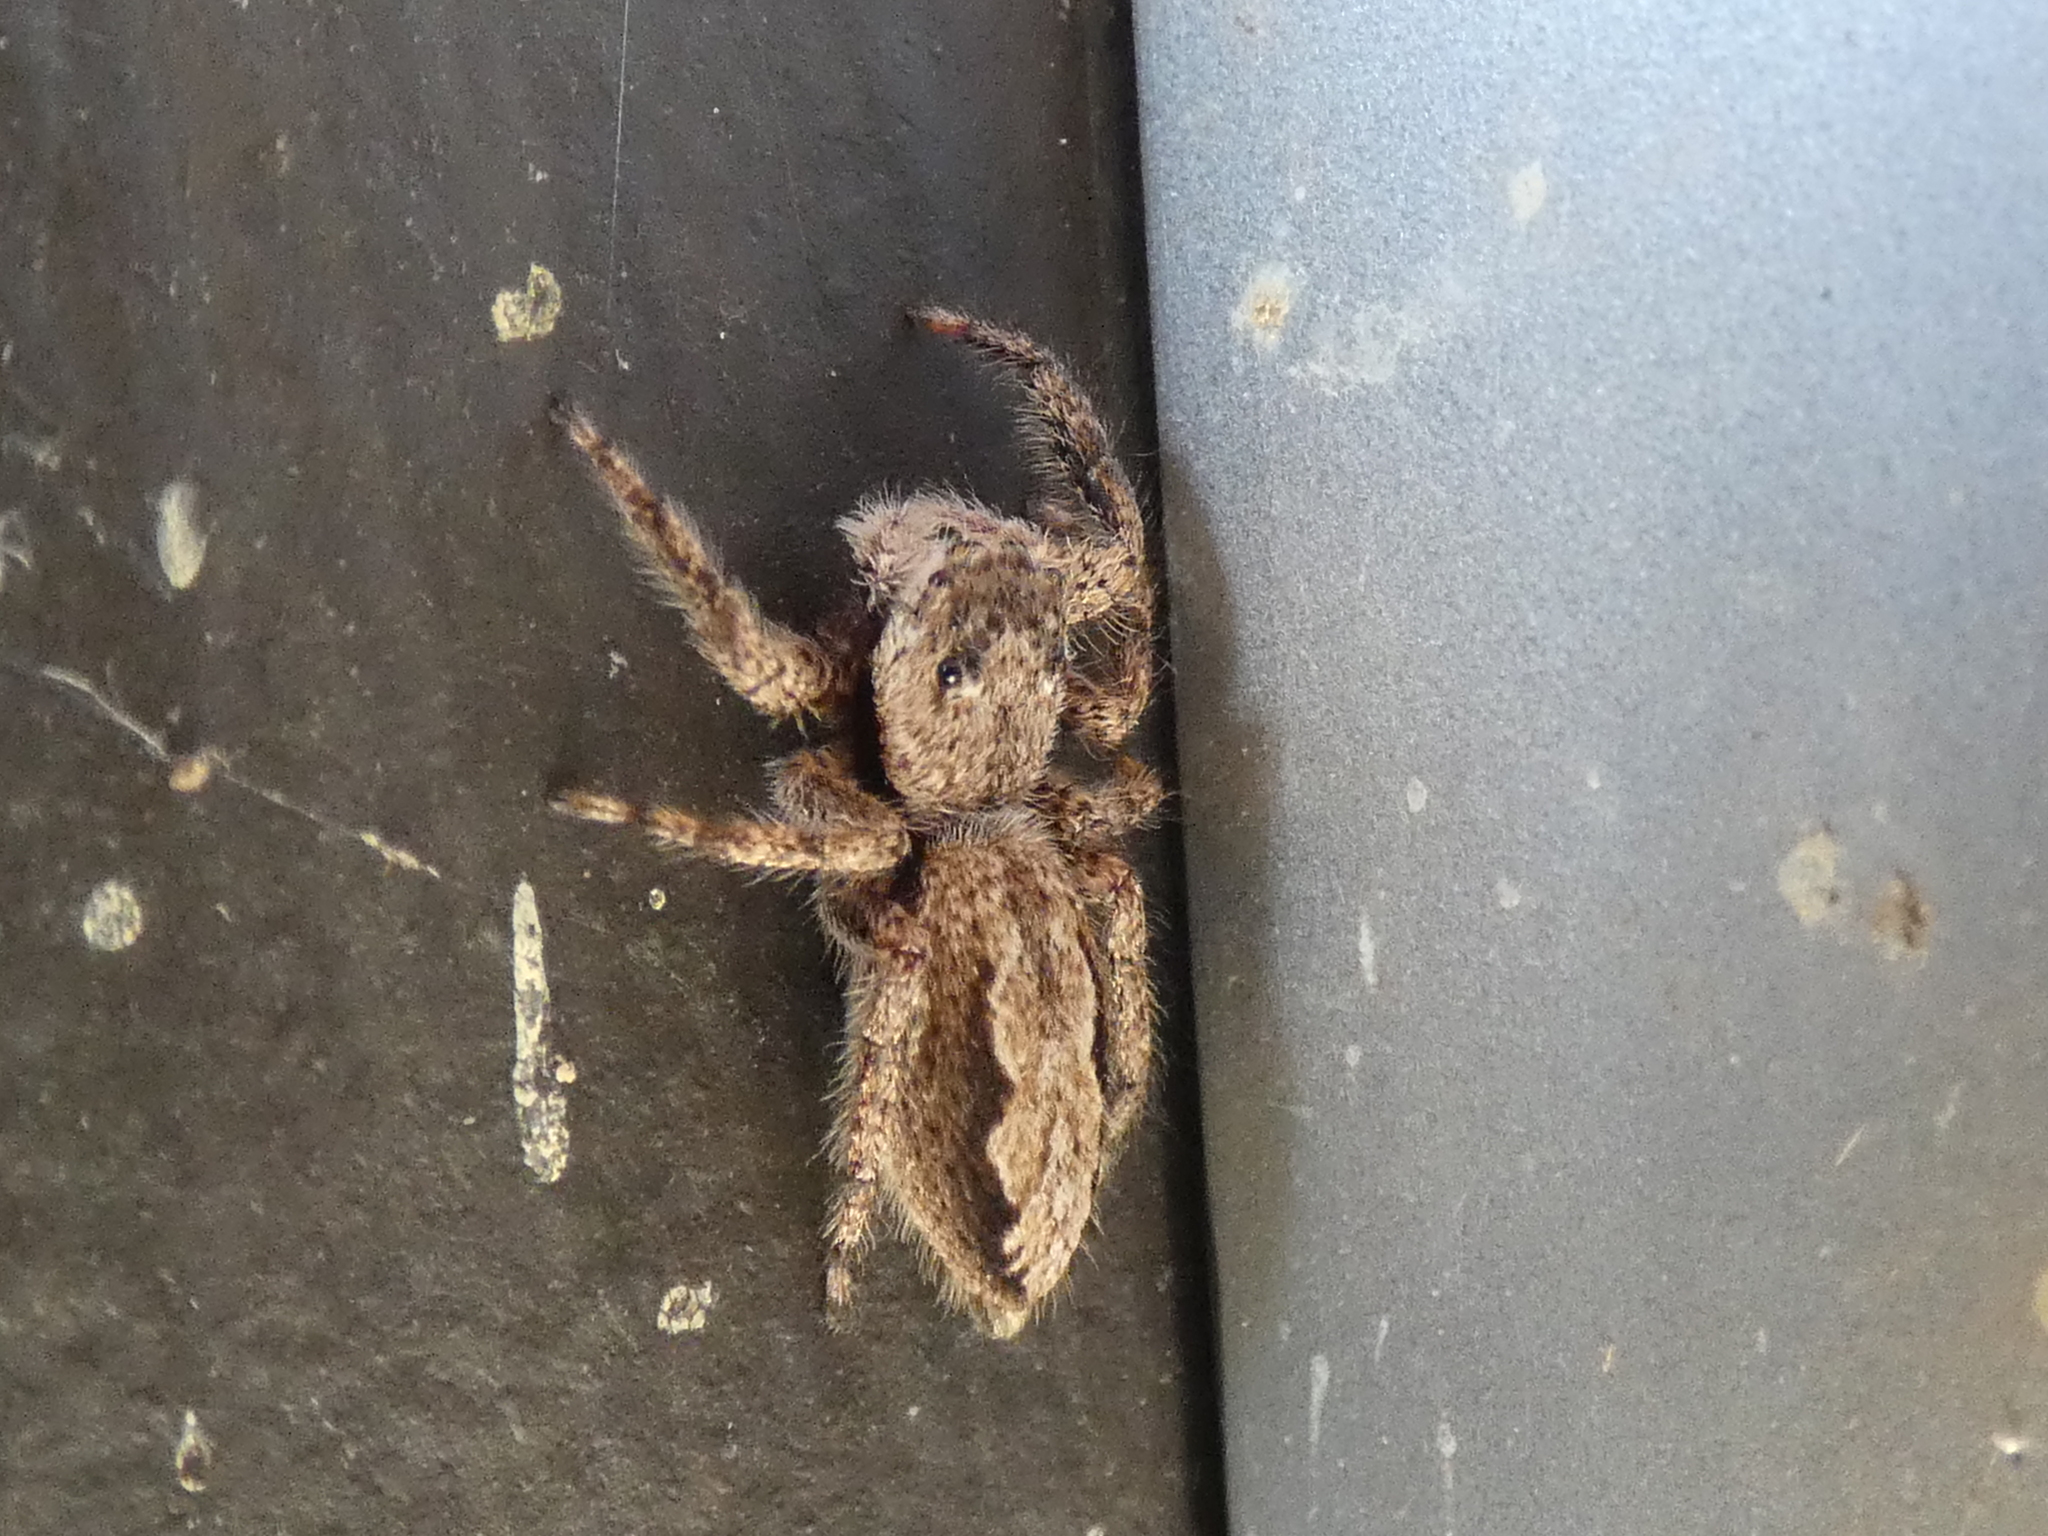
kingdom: Animalia
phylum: Arthropoda
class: Arachnida
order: Araneae
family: Salticidae
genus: Platycryptus
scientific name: Platycryptus undatus
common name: Tan jumping spider
